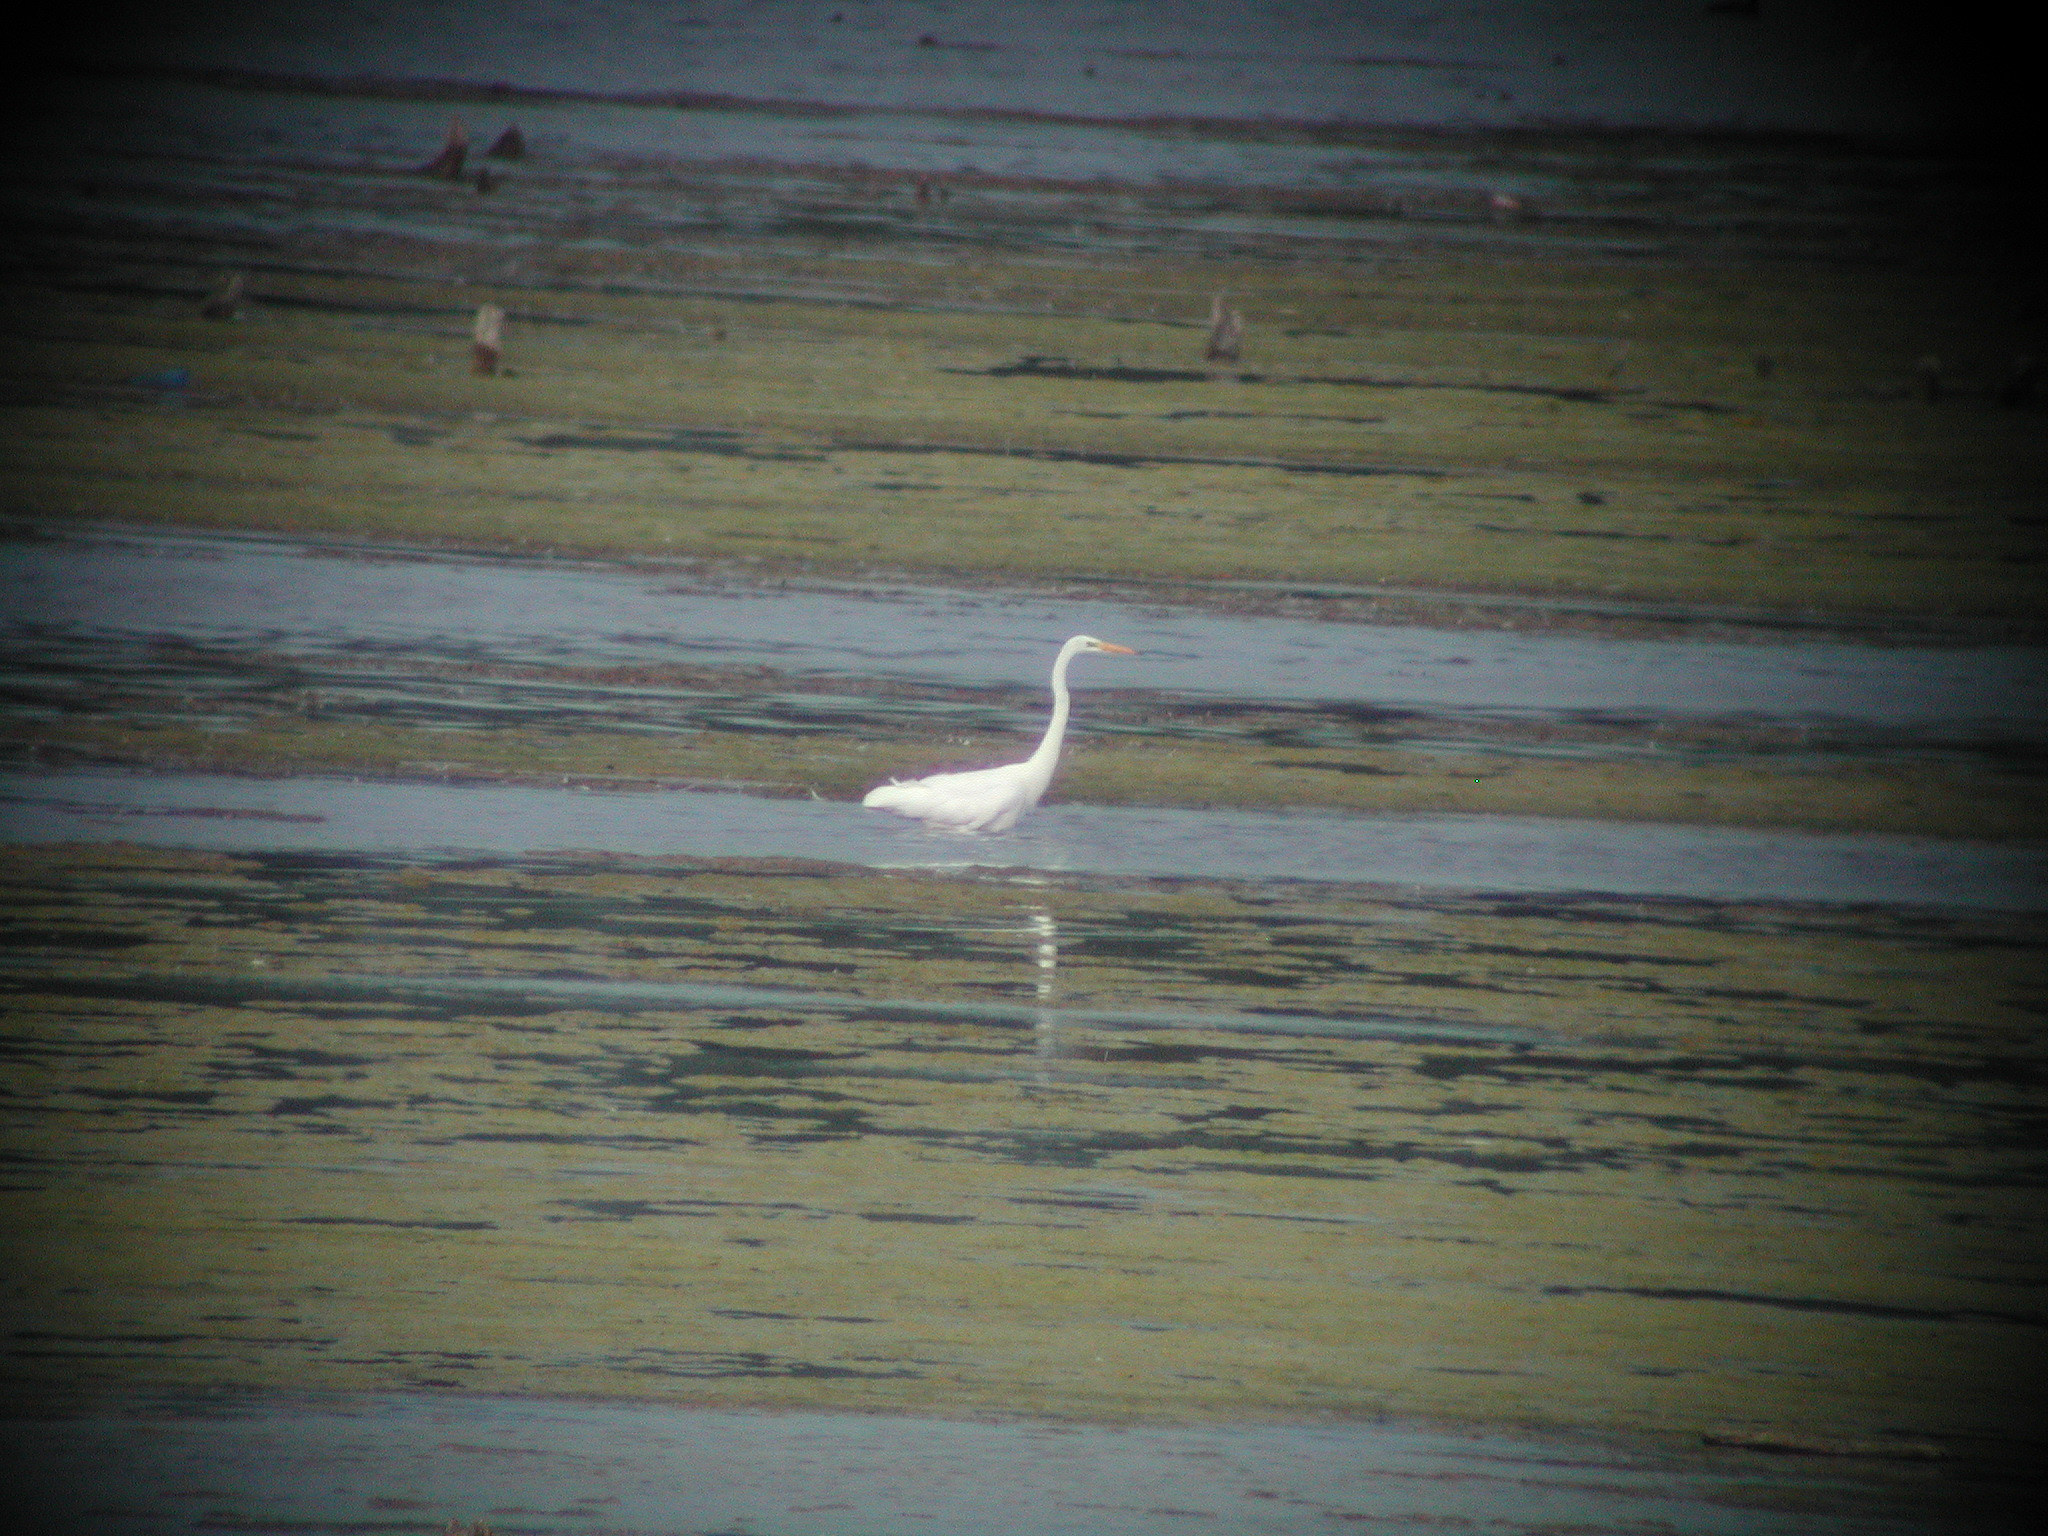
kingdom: Animalia
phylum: Chordata
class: Aves
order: Pelecaniformes
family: Ardeidae
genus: Ardea
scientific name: Ardea alba
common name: Great egret
